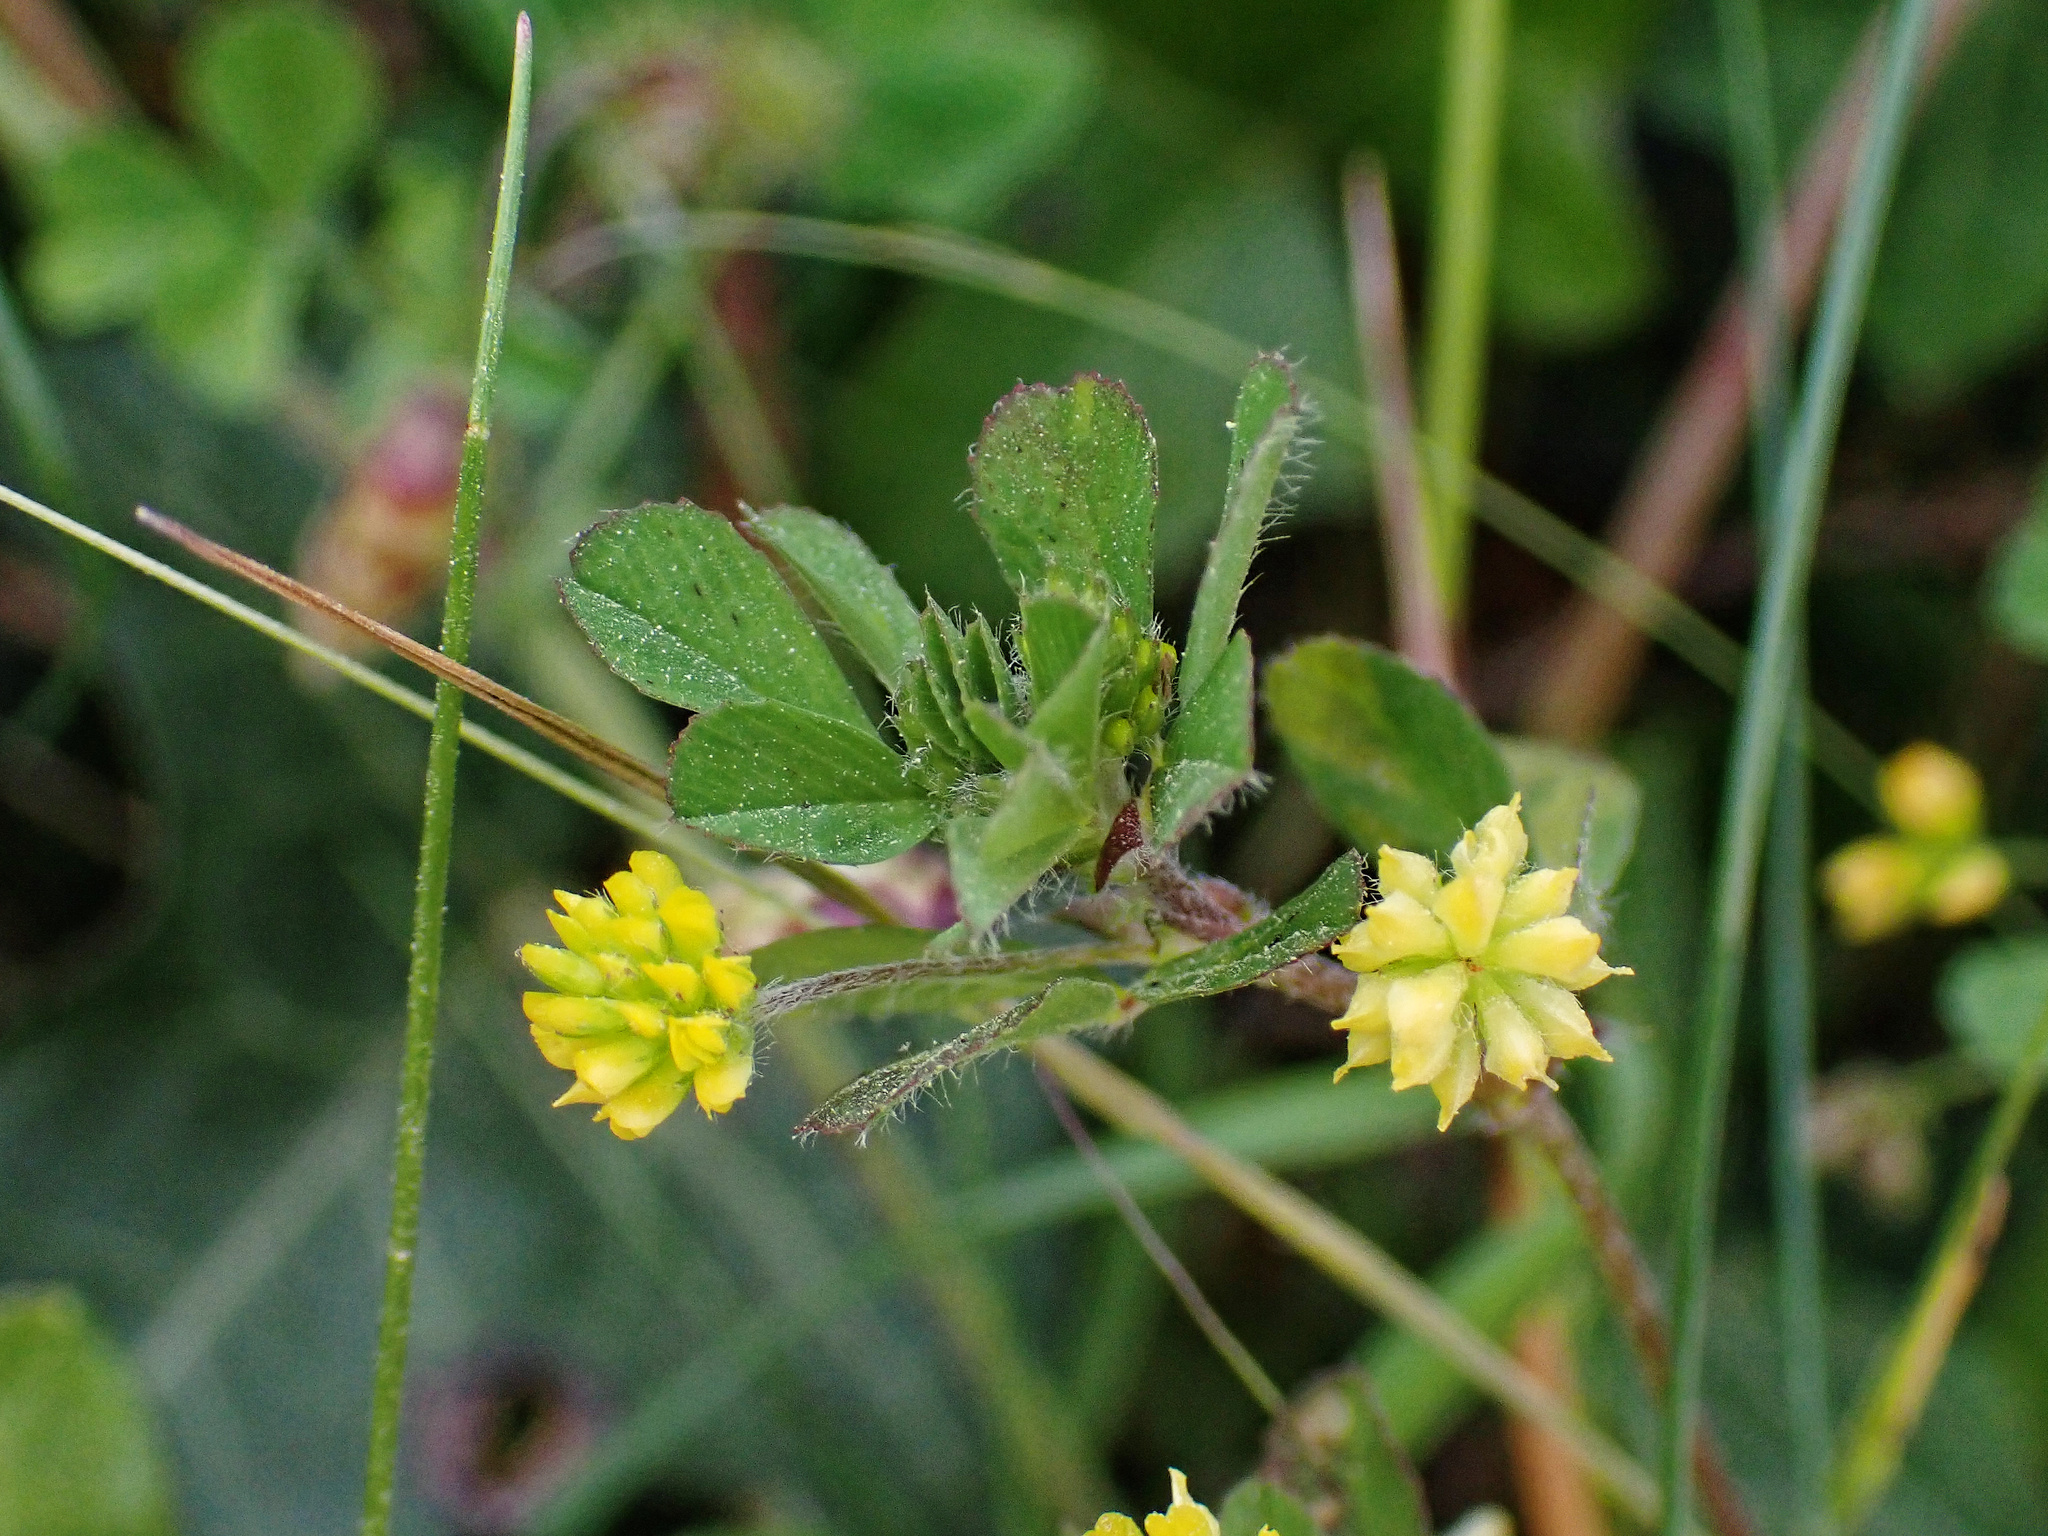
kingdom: Plantae
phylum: Tracheophyta
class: Magnoliopsida
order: Fabales
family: Fabaceae
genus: Trifolium
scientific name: Trifolium dubium
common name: Suckling clover
